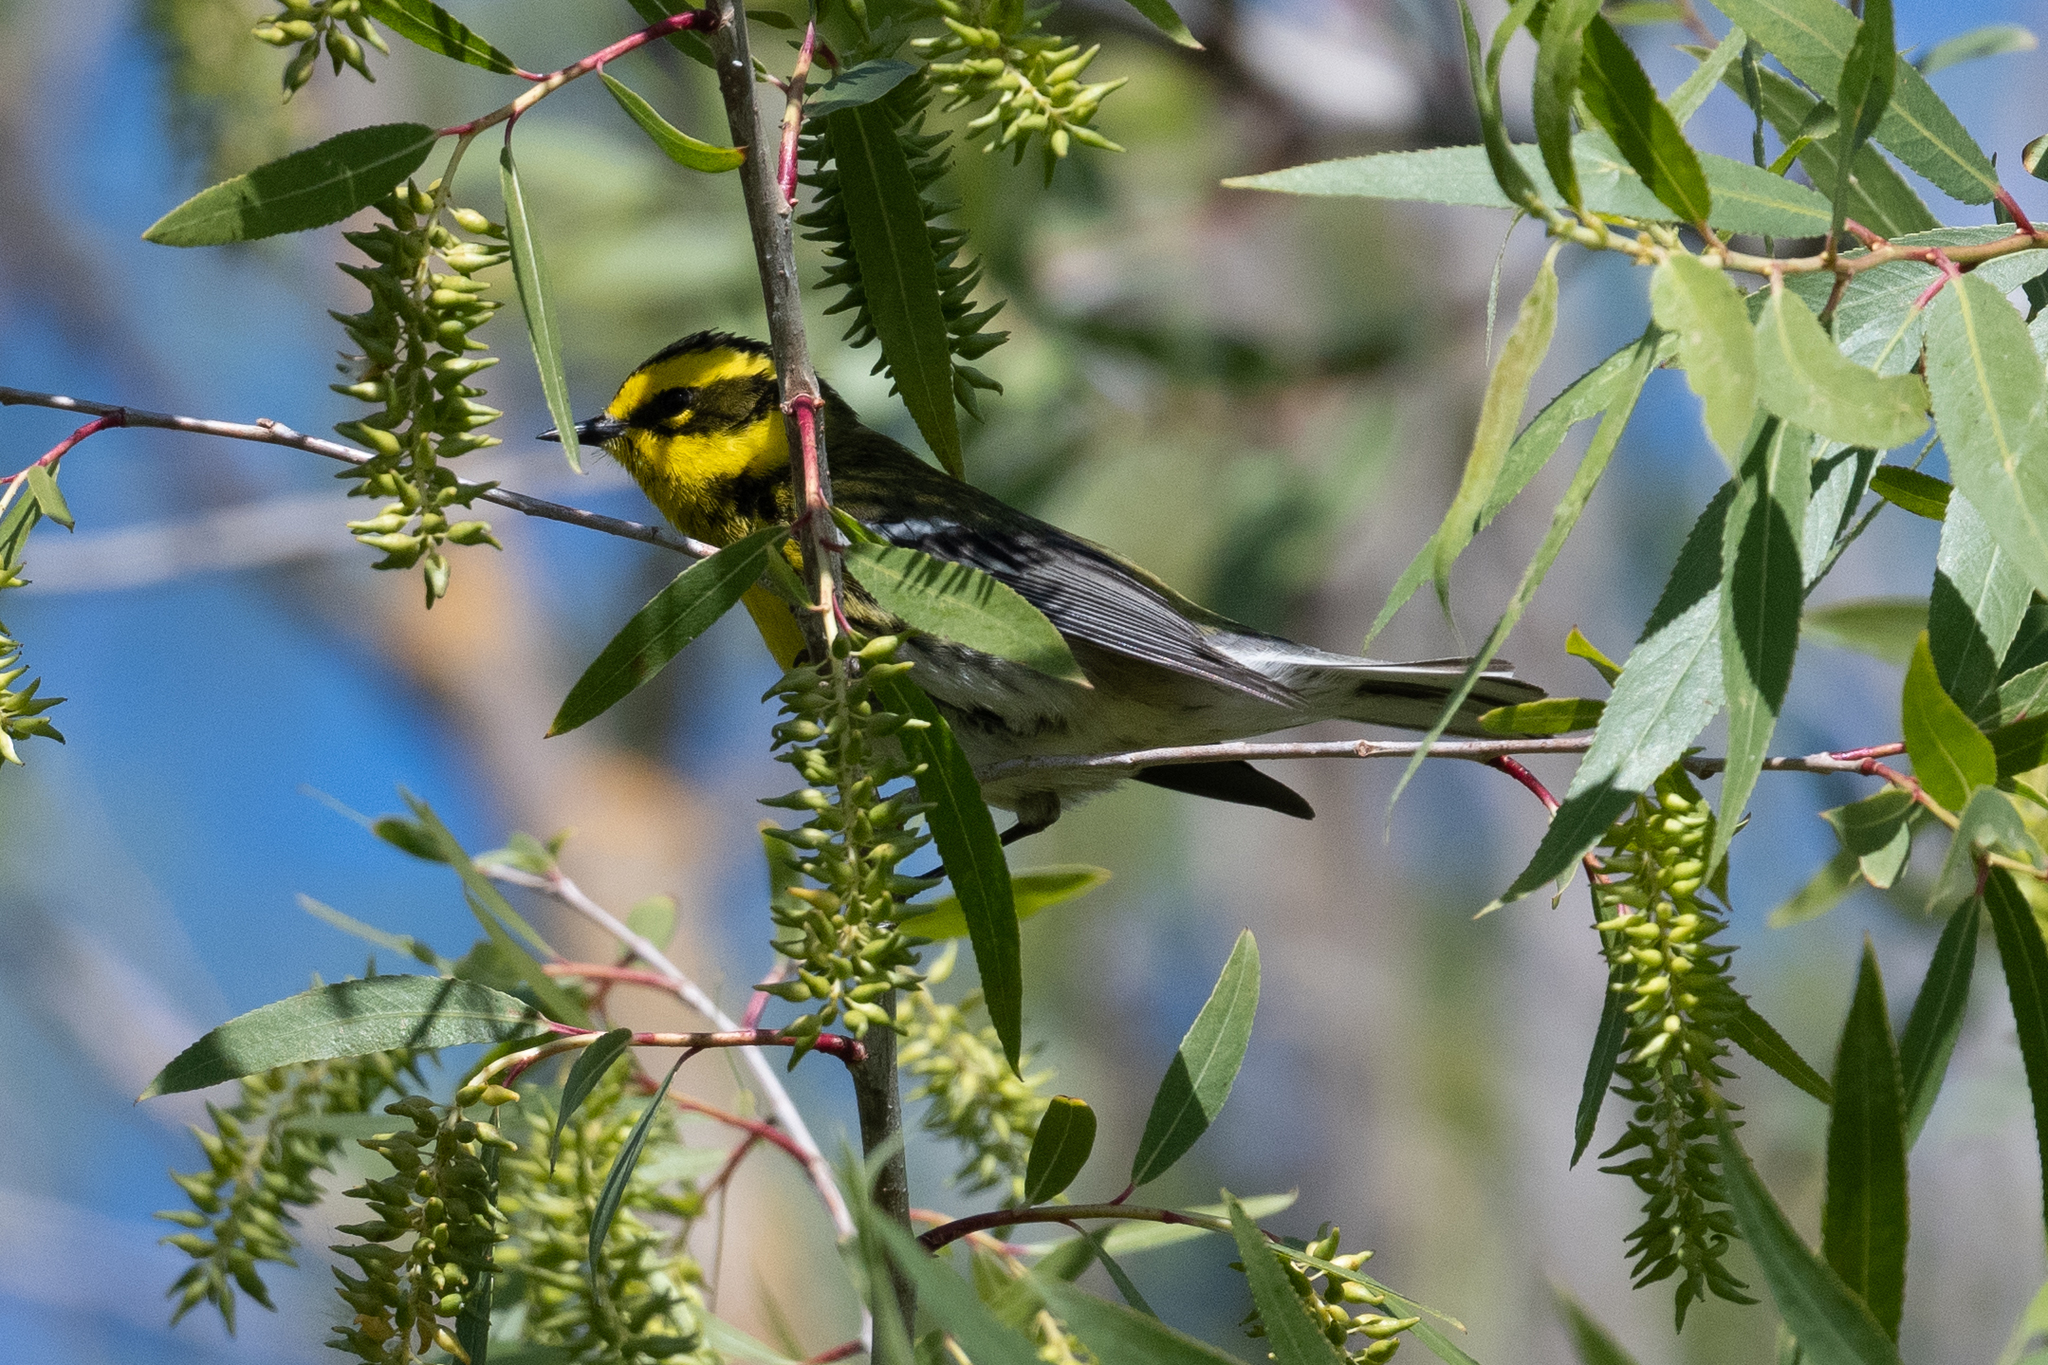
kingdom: Animalia
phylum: Chordata
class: Aves
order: Passeriformes
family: Parulidae
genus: Setophaga
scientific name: Setophaga townsendi
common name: Townsend's warbler
